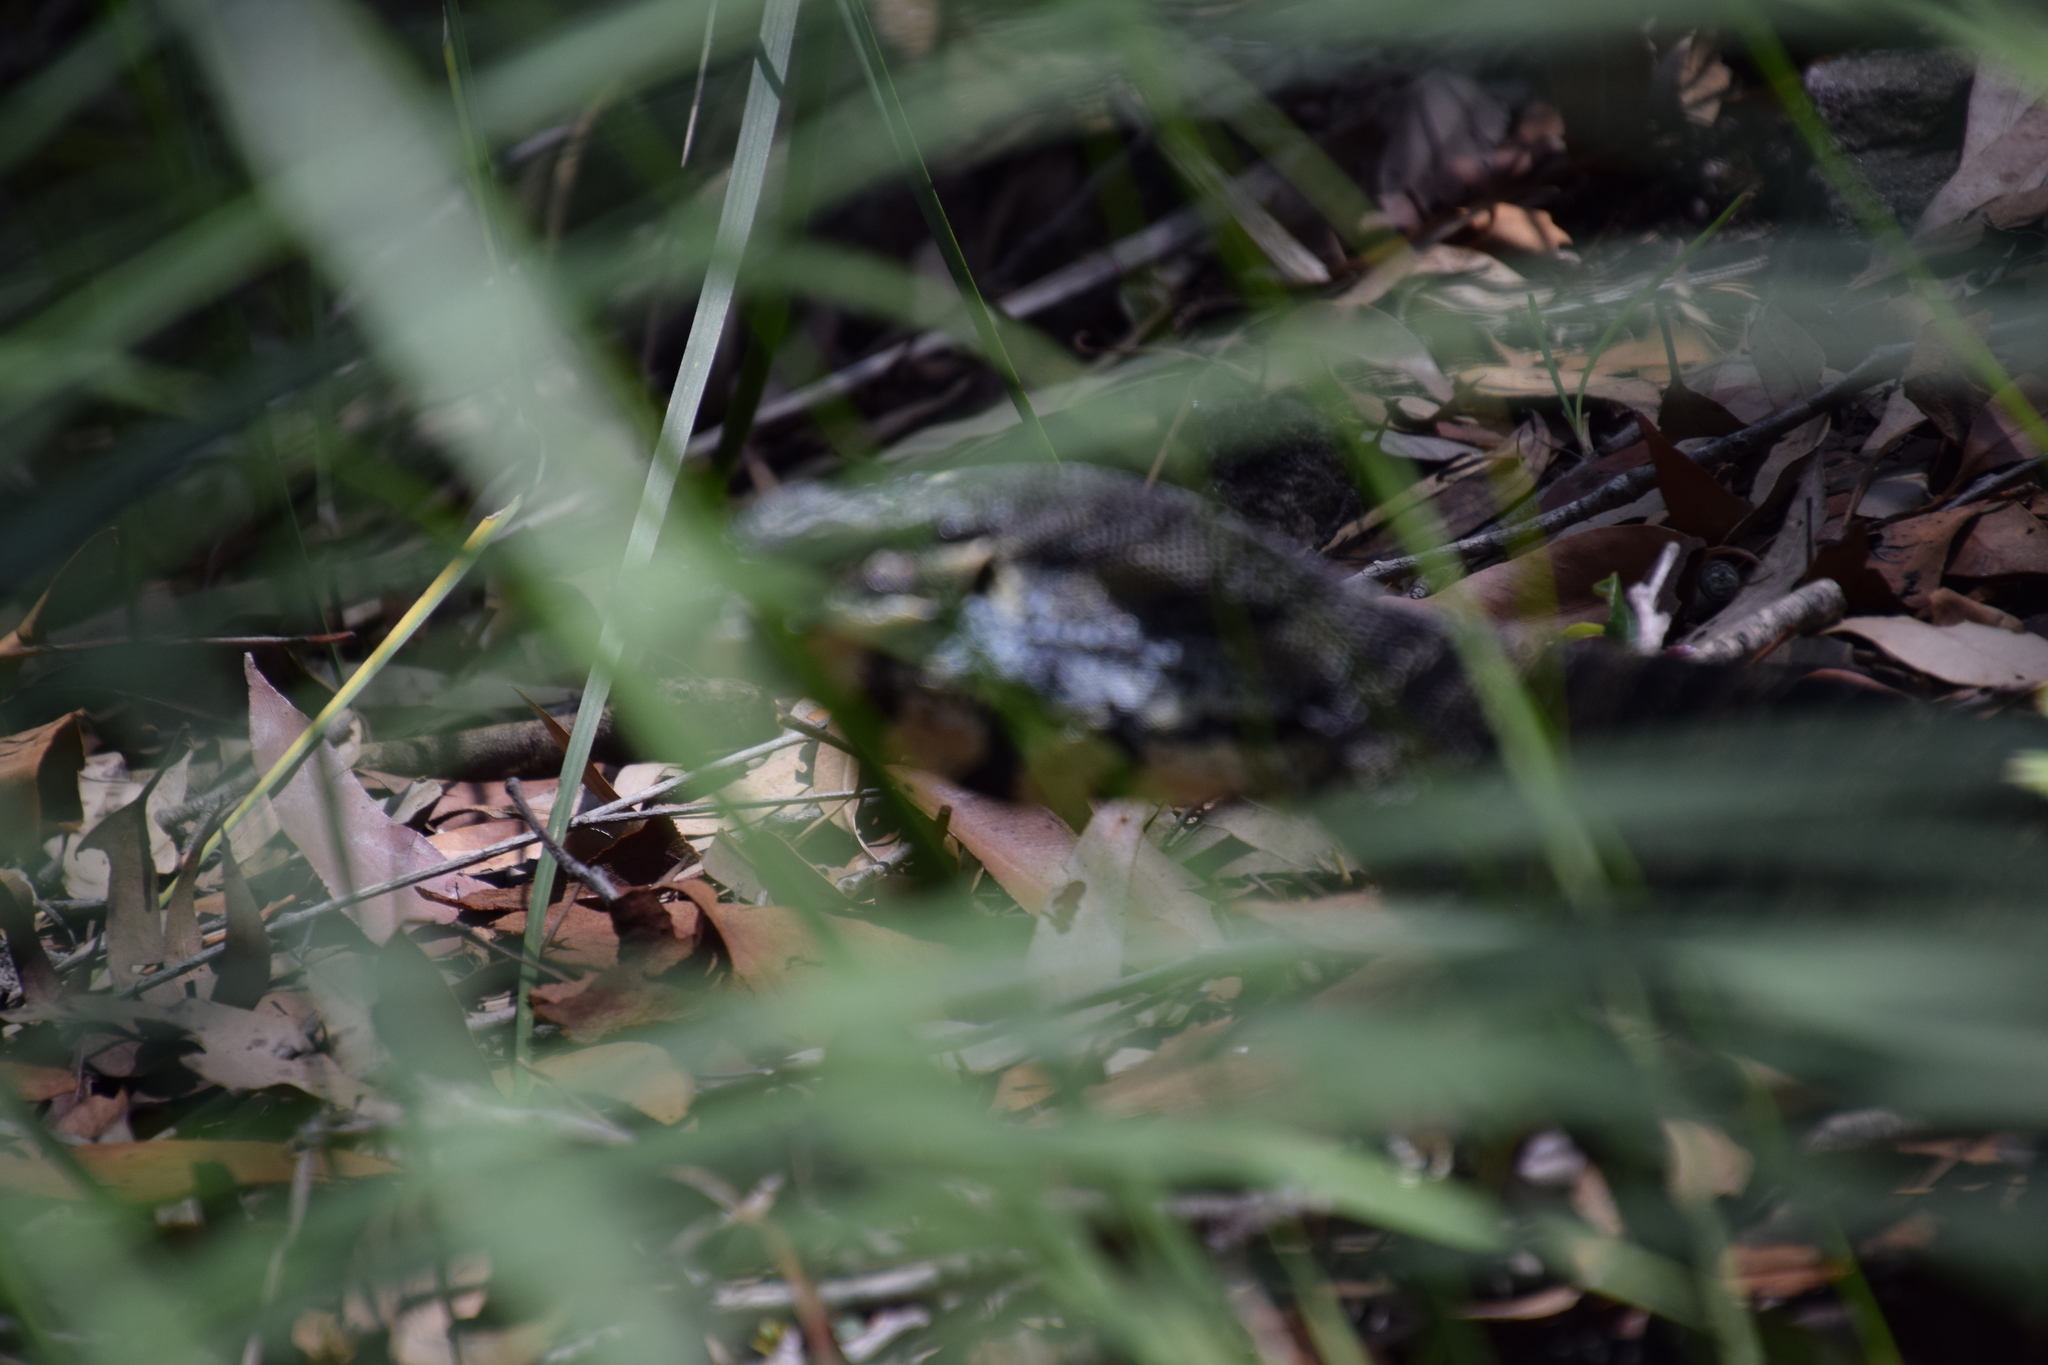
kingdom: Animalia
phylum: Chordata
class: Squamata
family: Varanidae
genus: Varanus
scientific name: Varanus varius
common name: Lace monitor
